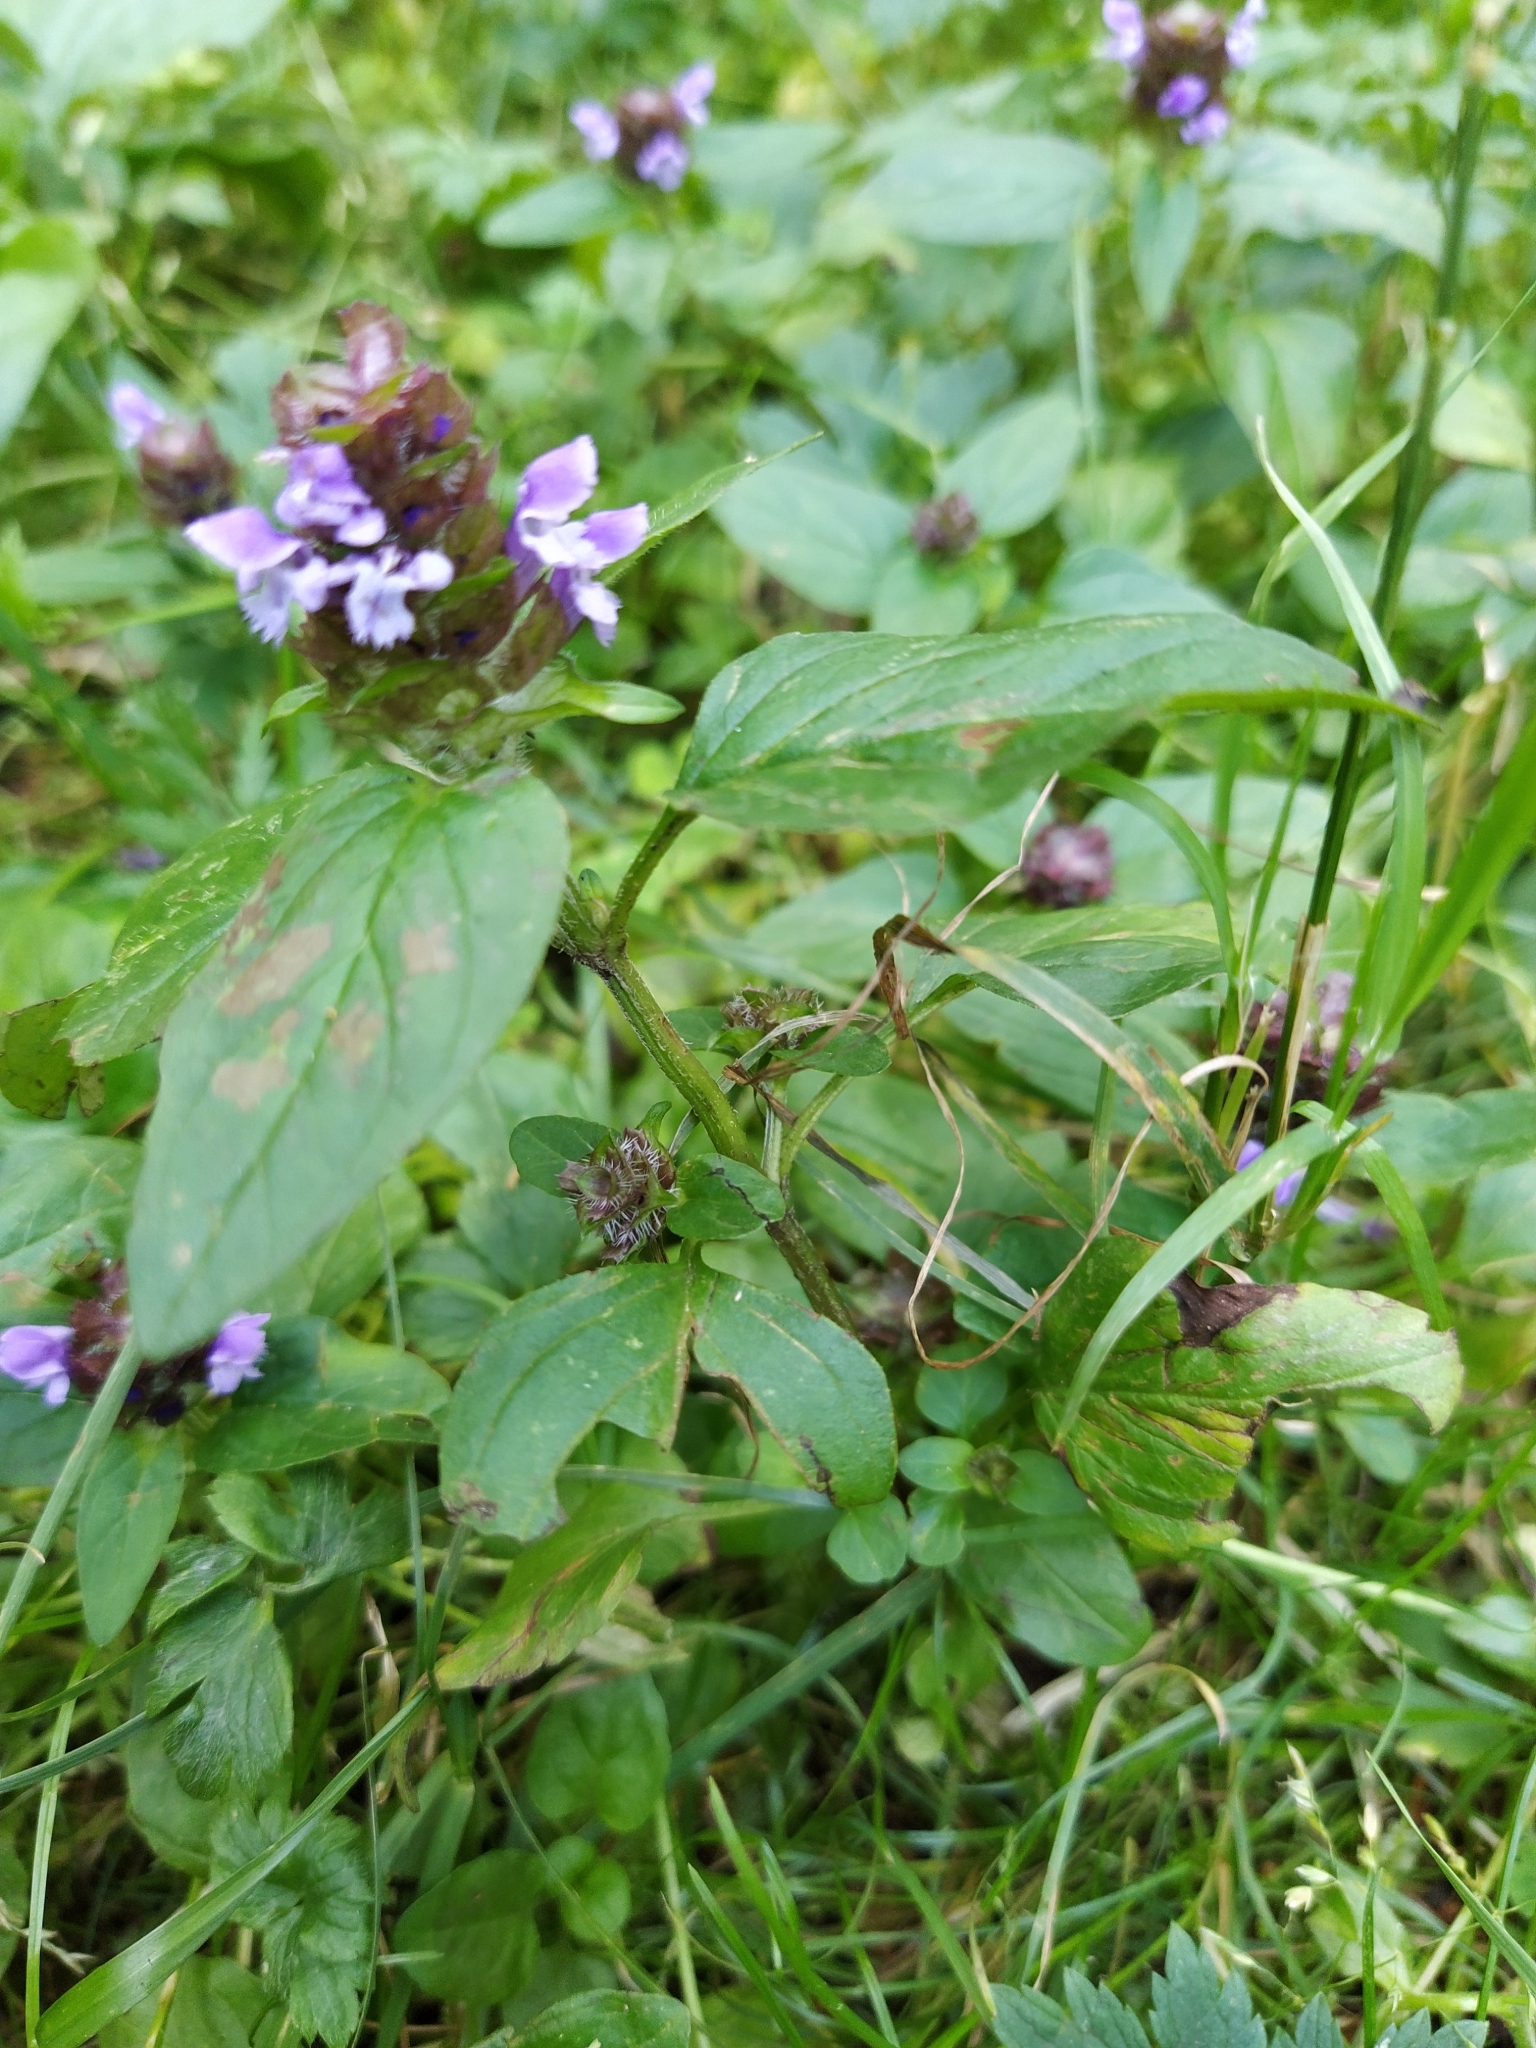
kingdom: Plantae
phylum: Tracheophyta
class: Magnoliopsida
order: Lamiales
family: Lamiaceae
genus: Prunella
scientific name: Prunella vulgaris
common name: Heal-all
